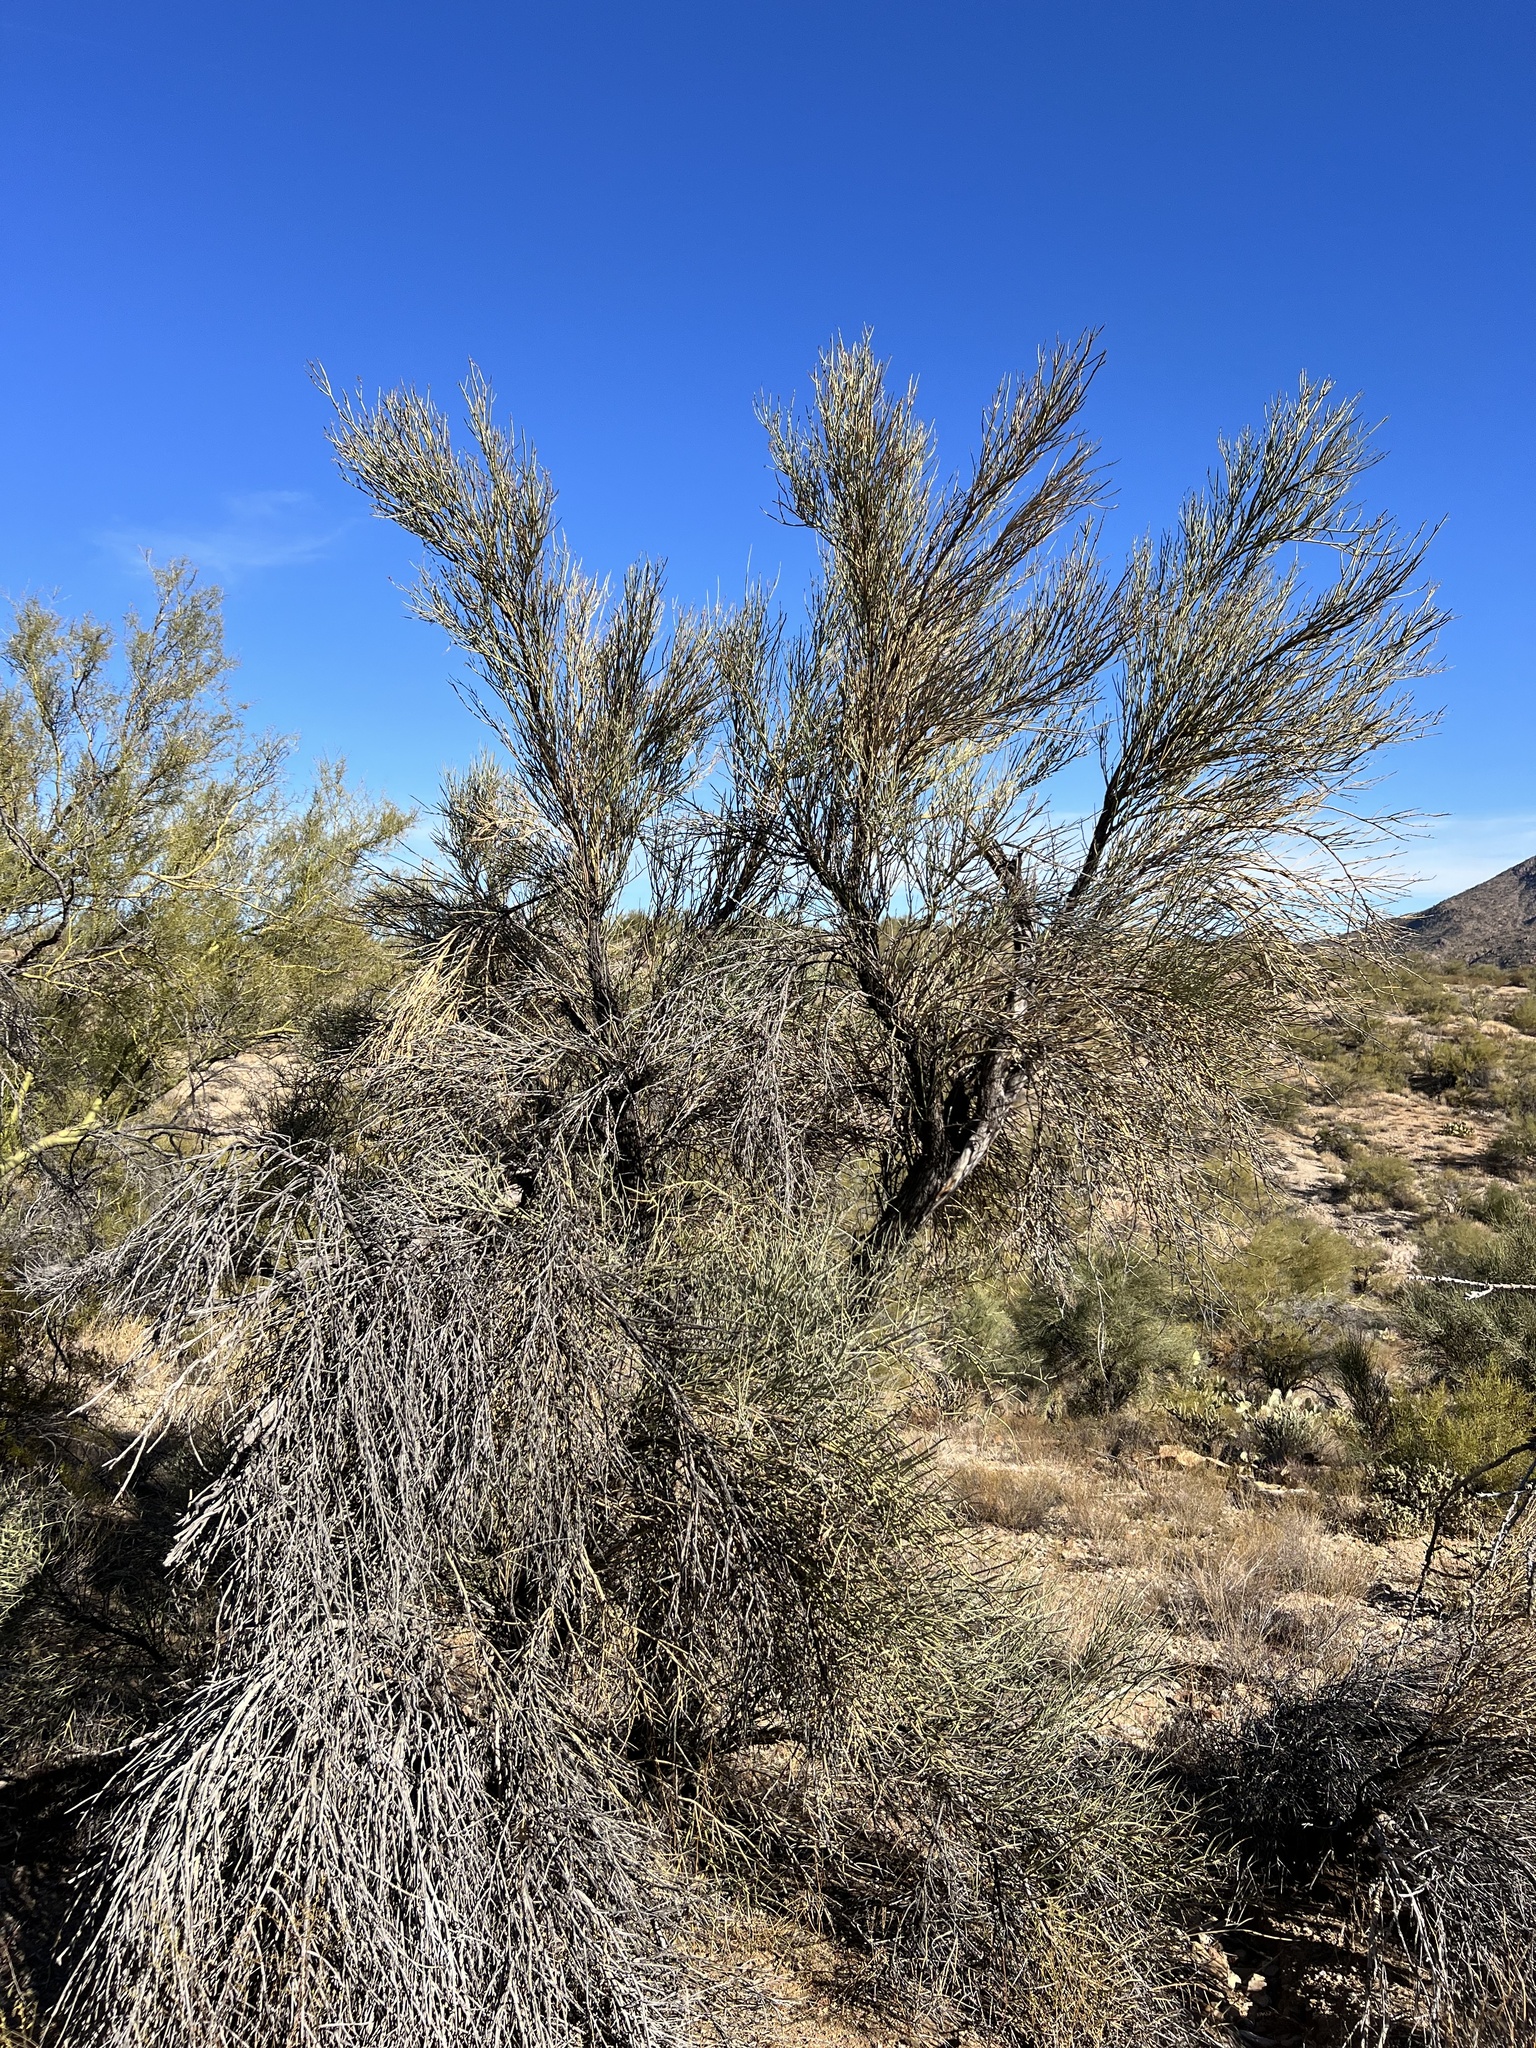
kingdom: Plantae
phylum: Tracheophyta
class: Magnoliopsida
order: Celastrales
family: Celastraceae
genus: Canotia
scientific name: Canotia holacantha
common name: Crucifixion thorns
